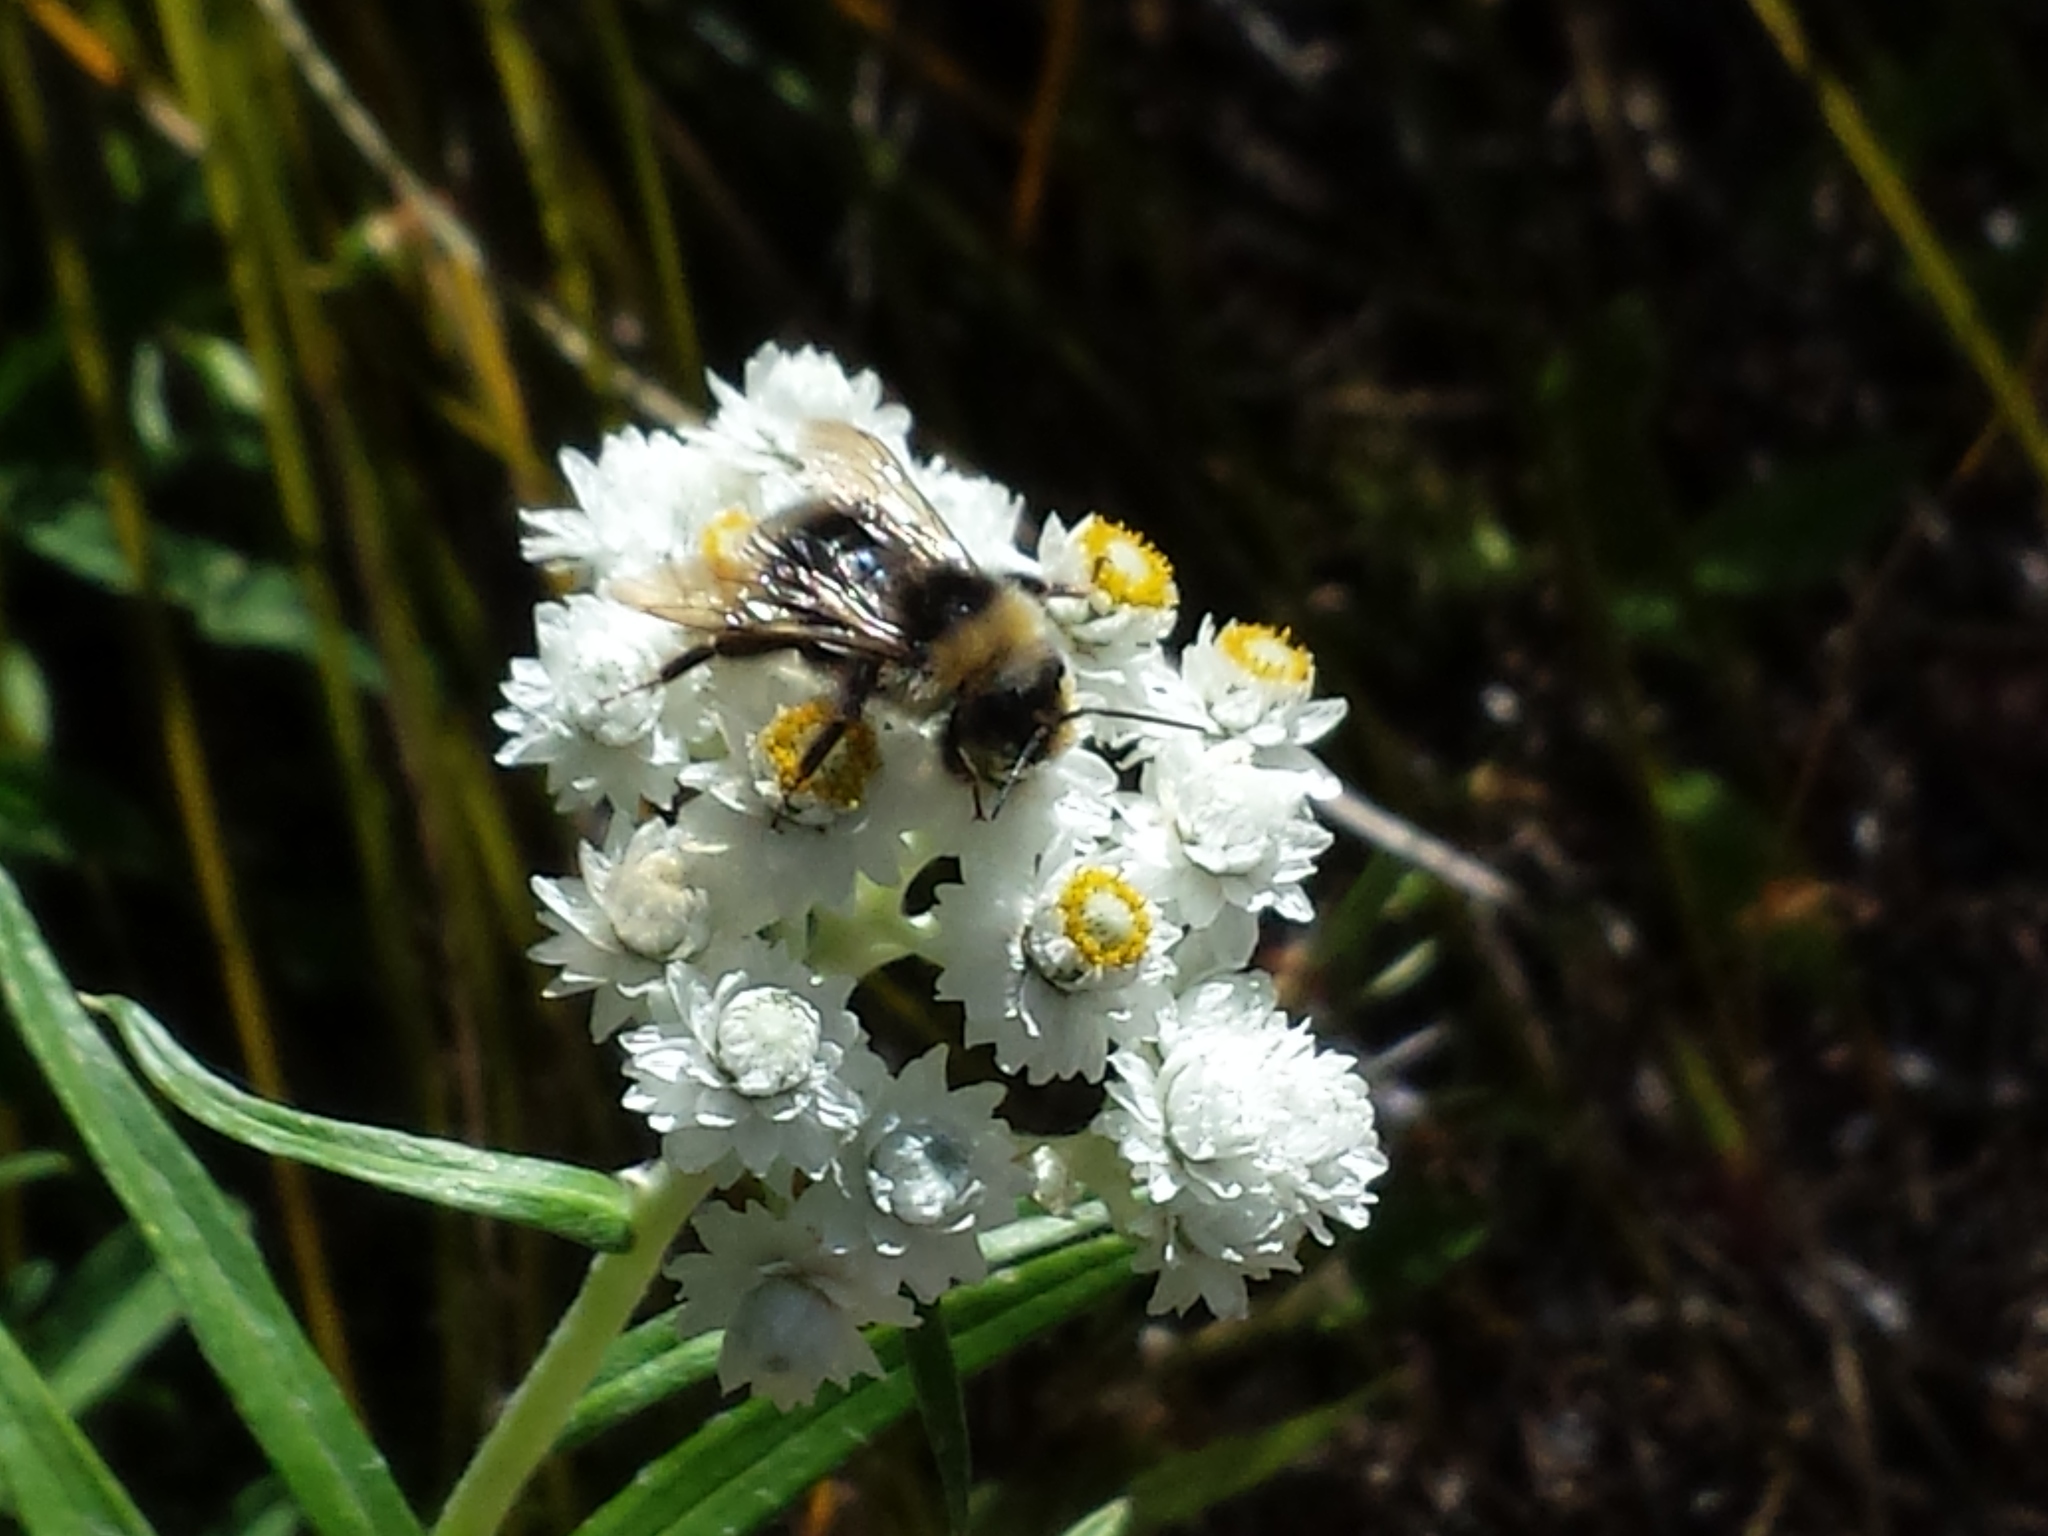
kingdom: Plantae
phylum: Tracheophyta
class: Magnoliopsida
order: Asterales
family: Asteraceae
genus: Anaphalis
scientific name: Anaphalis margaritacea
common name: Pearly everlasting
